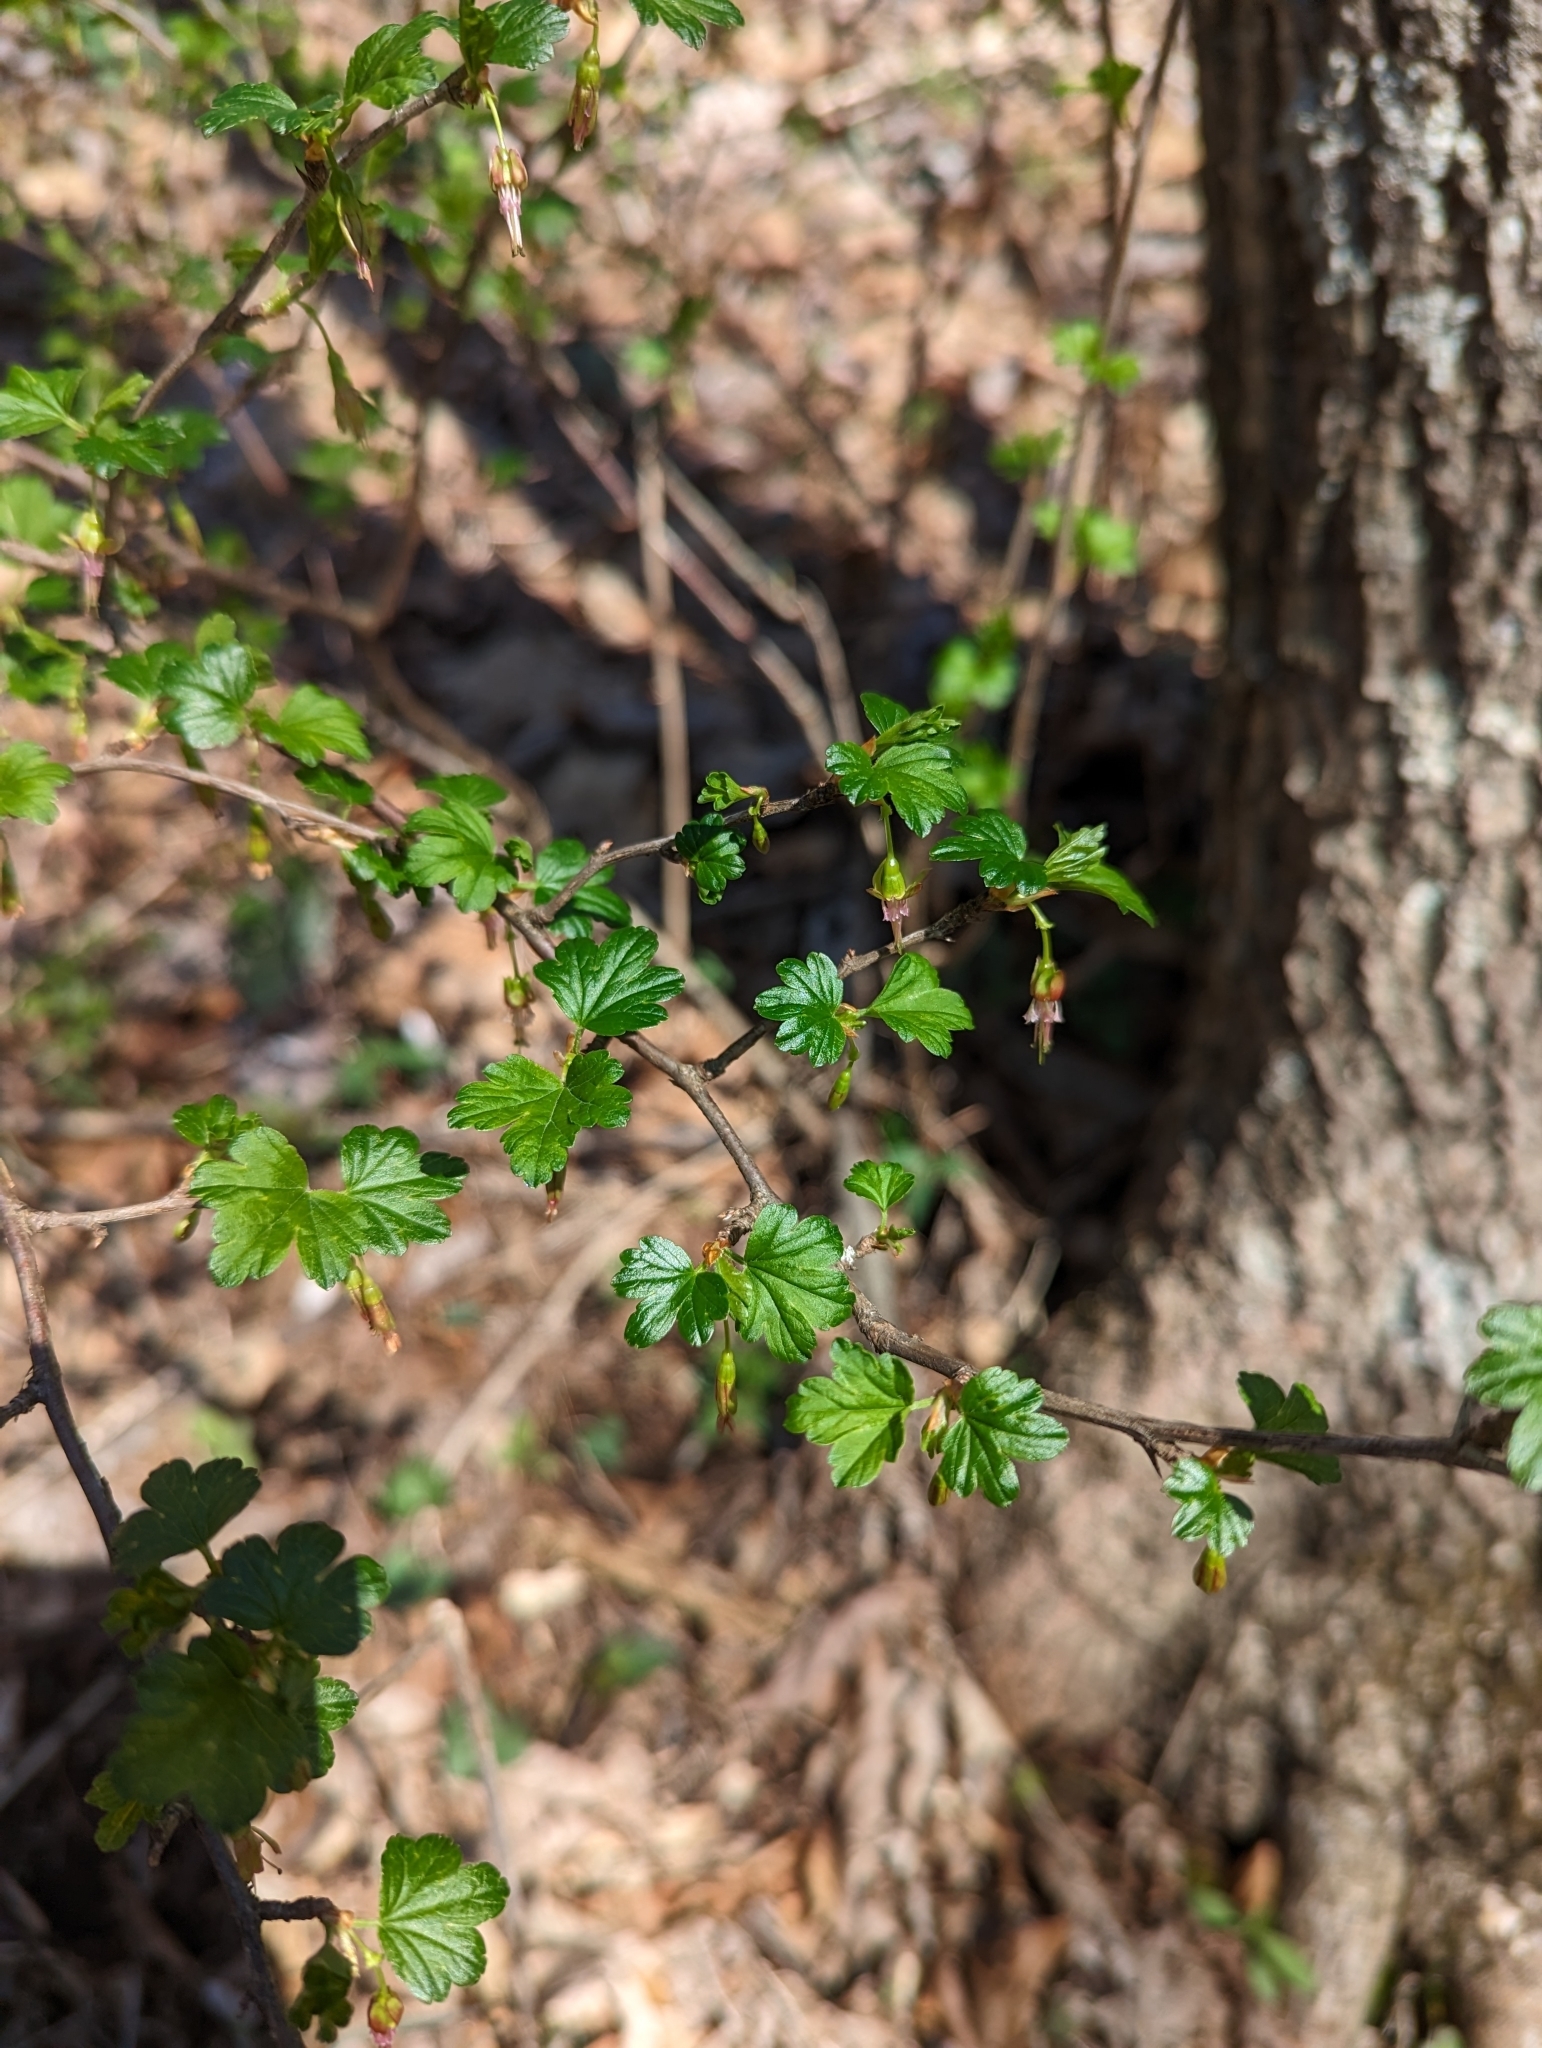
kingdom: Plantae
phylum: Tracheophyta
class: Magnoliopsida
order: Saxifragales
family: Grossulariaceae
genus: Ribes
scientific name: Ribes rotundifolium
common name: Appalachian gooseberry
